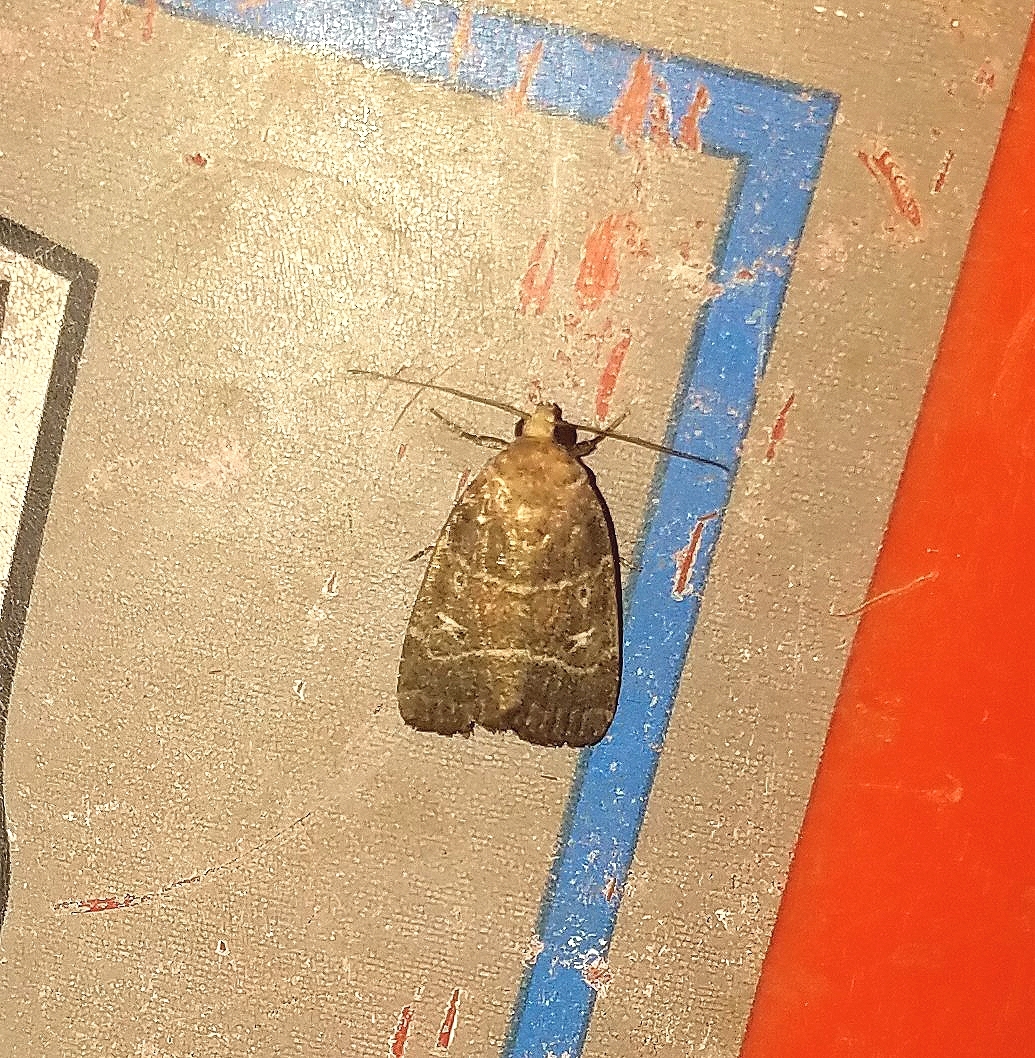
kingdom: Animalia
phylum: Arthropoda
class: Insecta
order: Lepidoptera
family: Noctuidae
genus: Elaphria
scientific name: Elaphria grata
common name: Grateful midget moth
